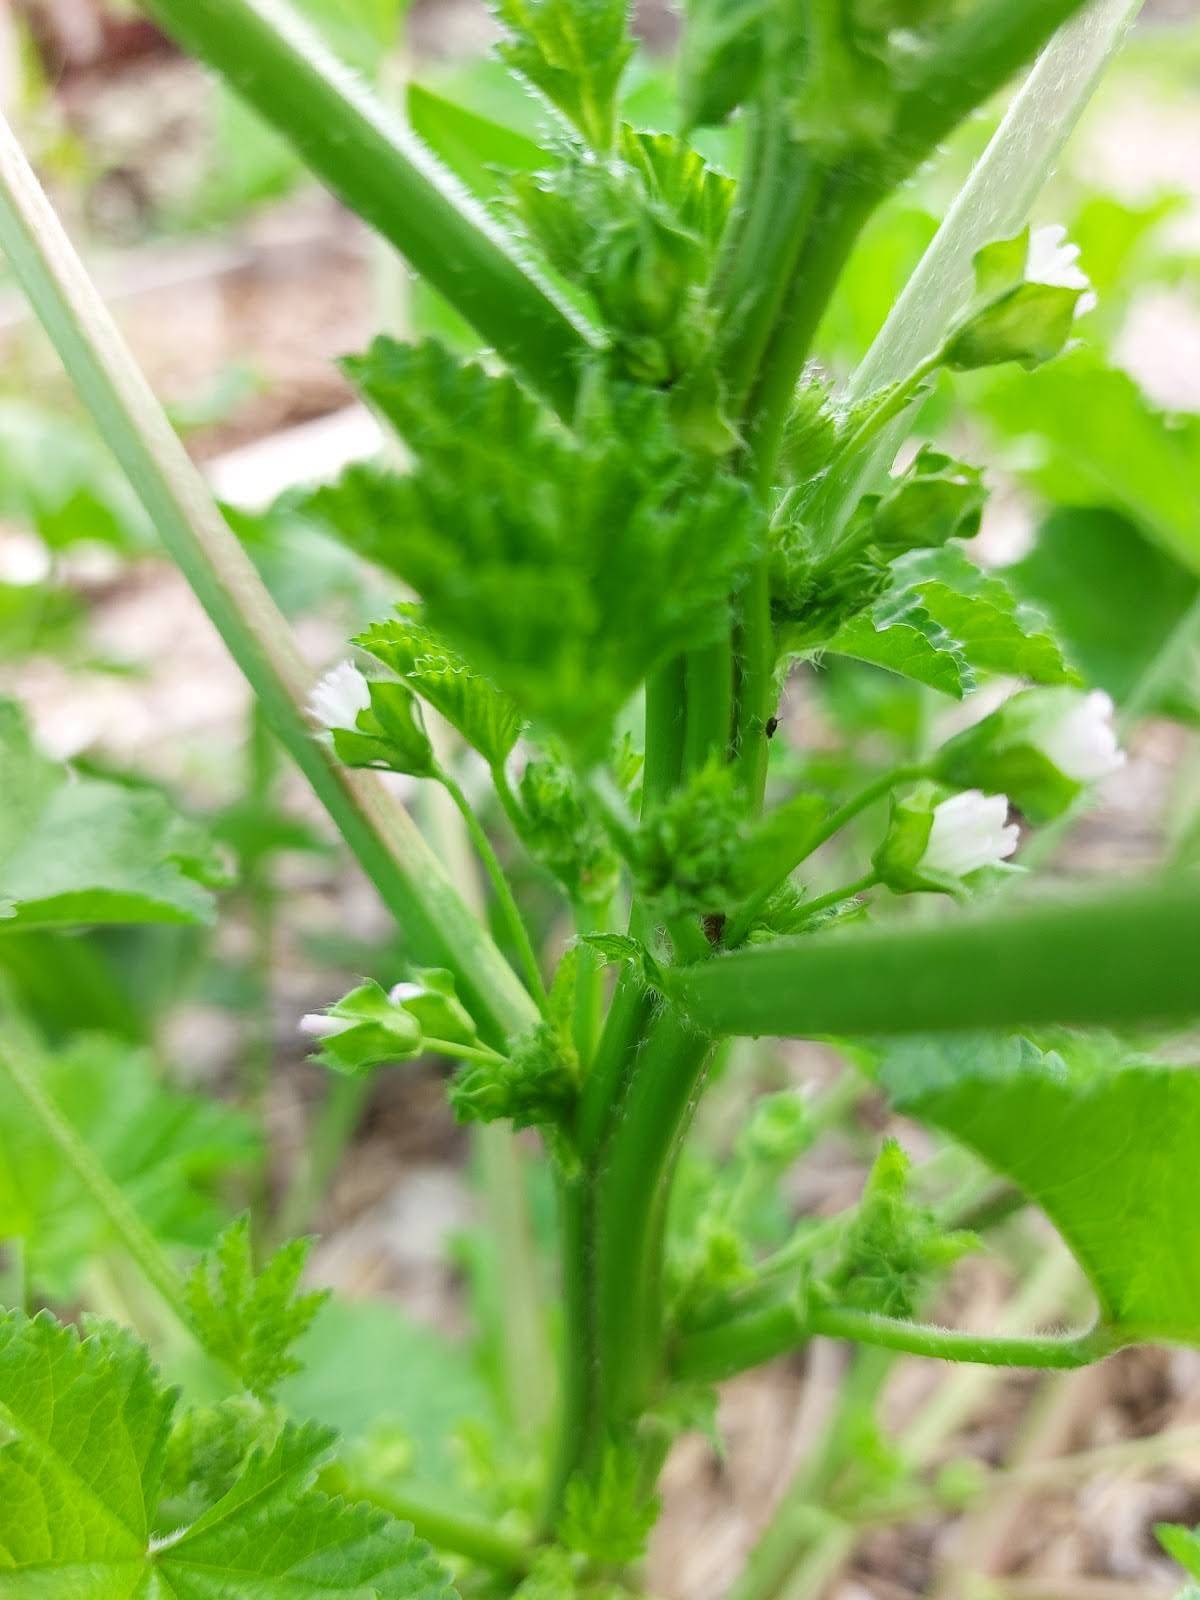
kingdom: Plantae
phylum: Tracheophyta
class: Magnoliopsida
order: Malvales
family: Malvaceae
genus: Malva
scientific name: Malva parviflora
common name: Least mallow
